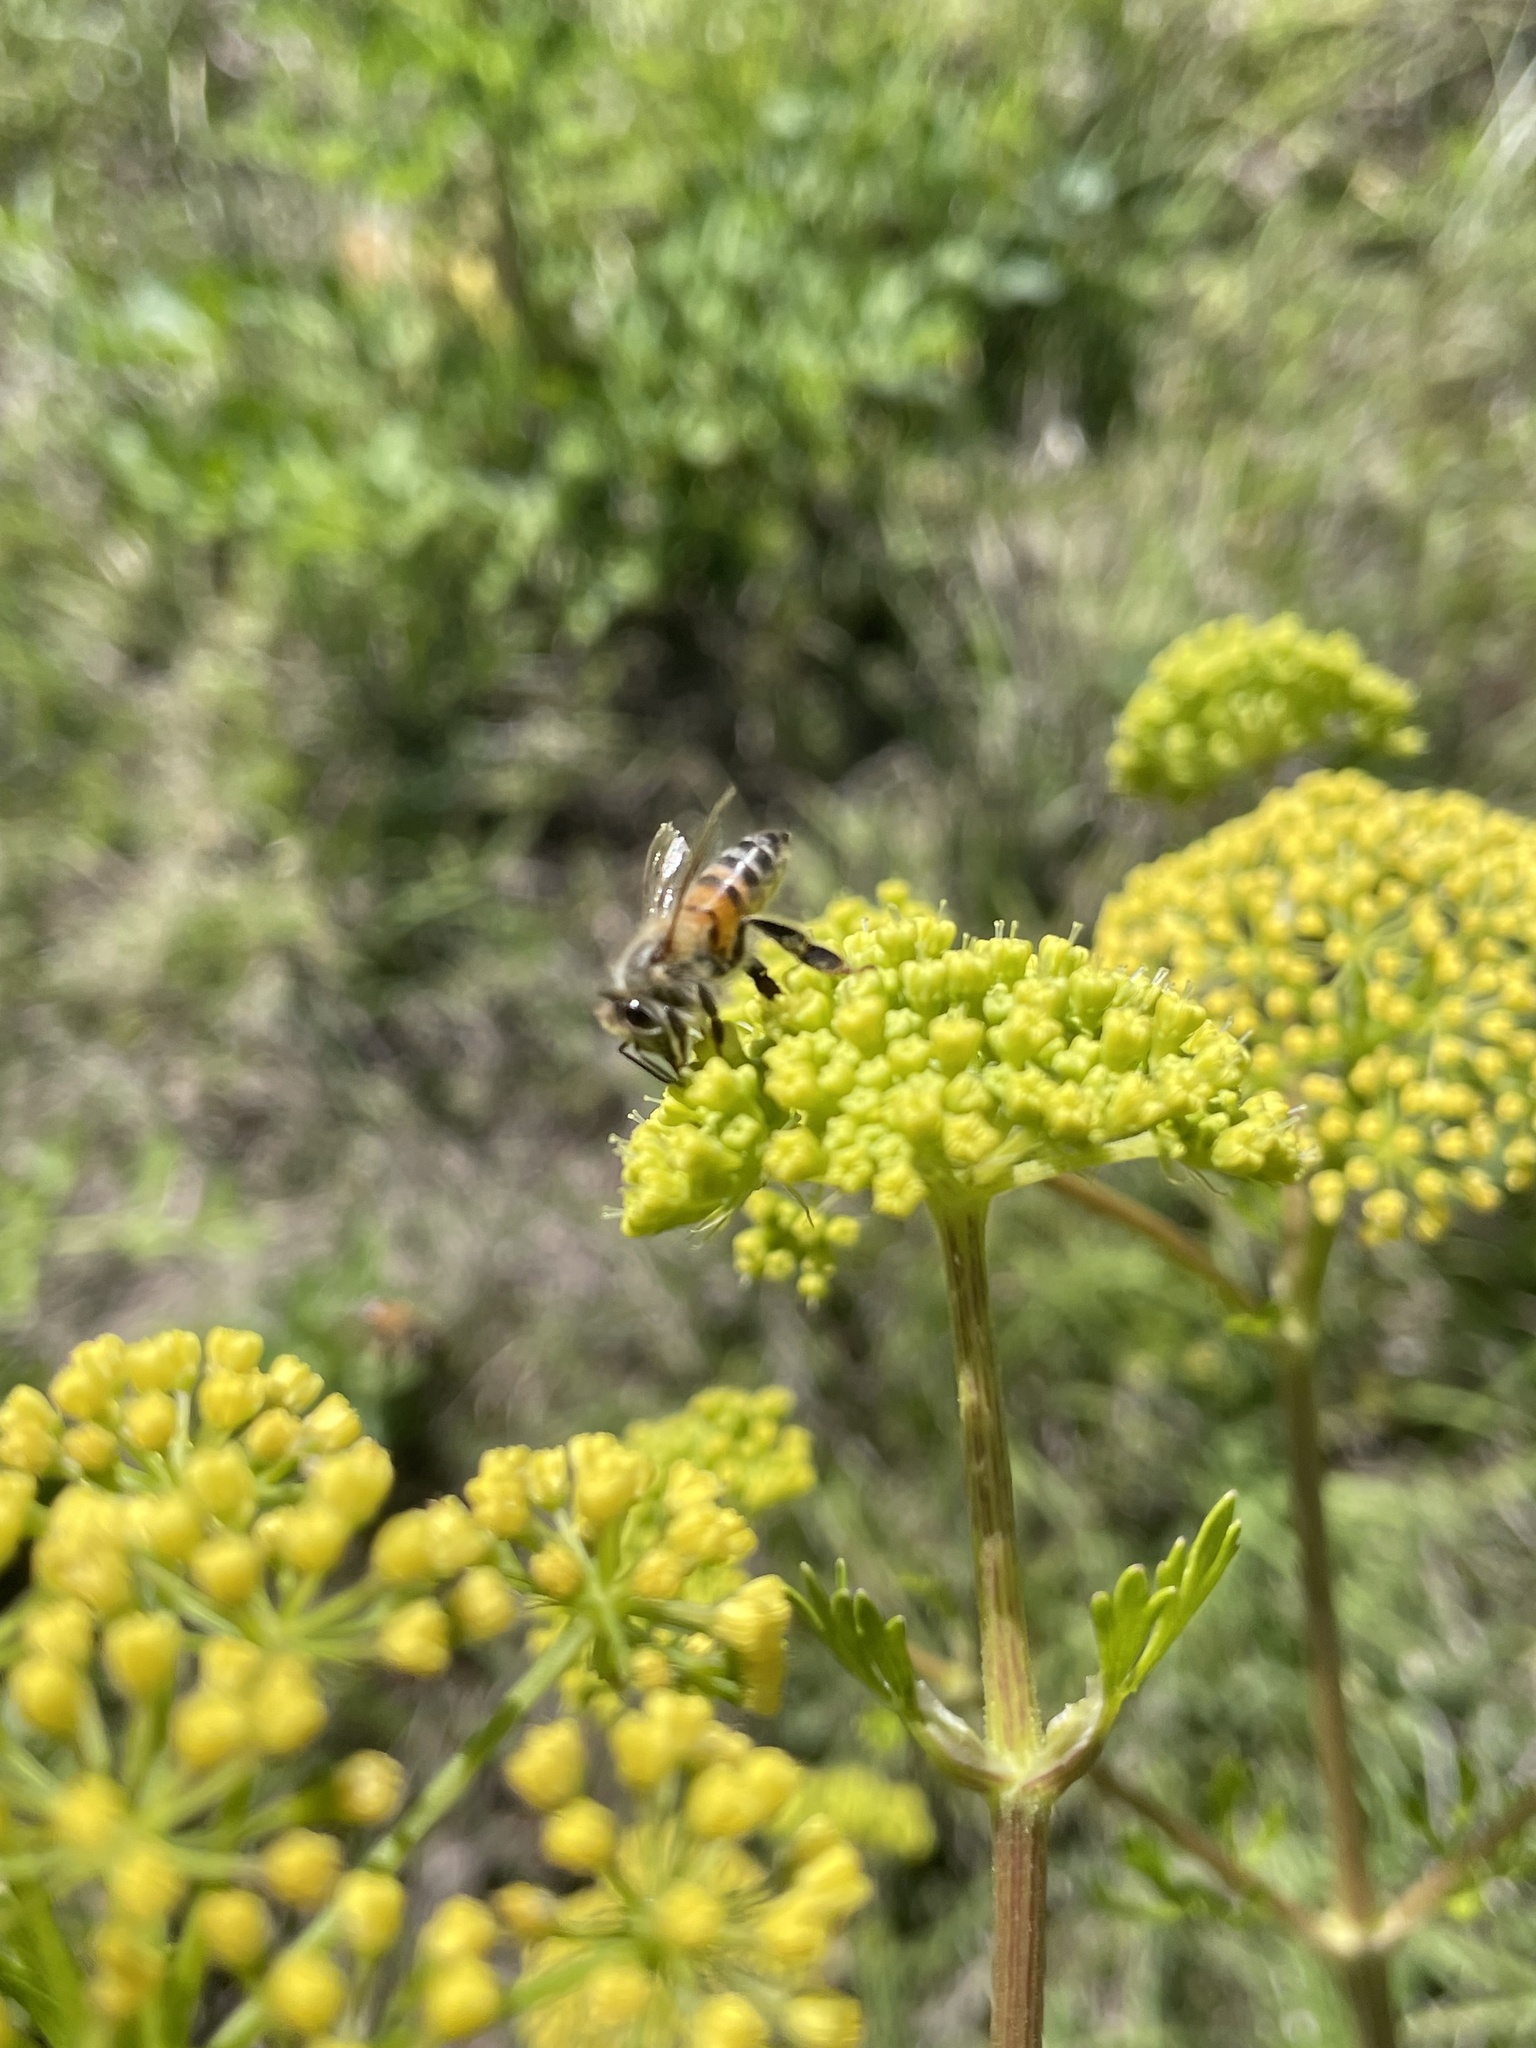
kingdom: Animalia
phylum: Arthropoda
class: Insecta
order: Hymenoptera
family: Apidae
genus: Apis
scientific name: Apis mellifera
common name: Honey bee
